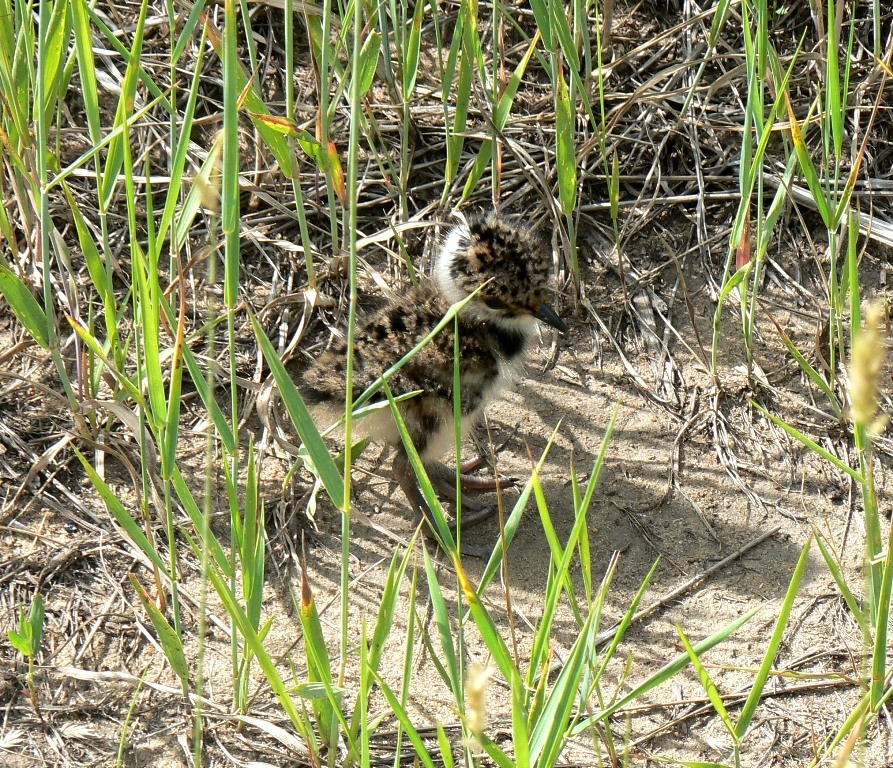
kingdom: Animalia
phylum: Chordata
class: Aves
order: Charadriiformes
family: Charadriidae
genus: Vanellus
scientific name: Vanellus vanellus
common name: Northern lapwing
